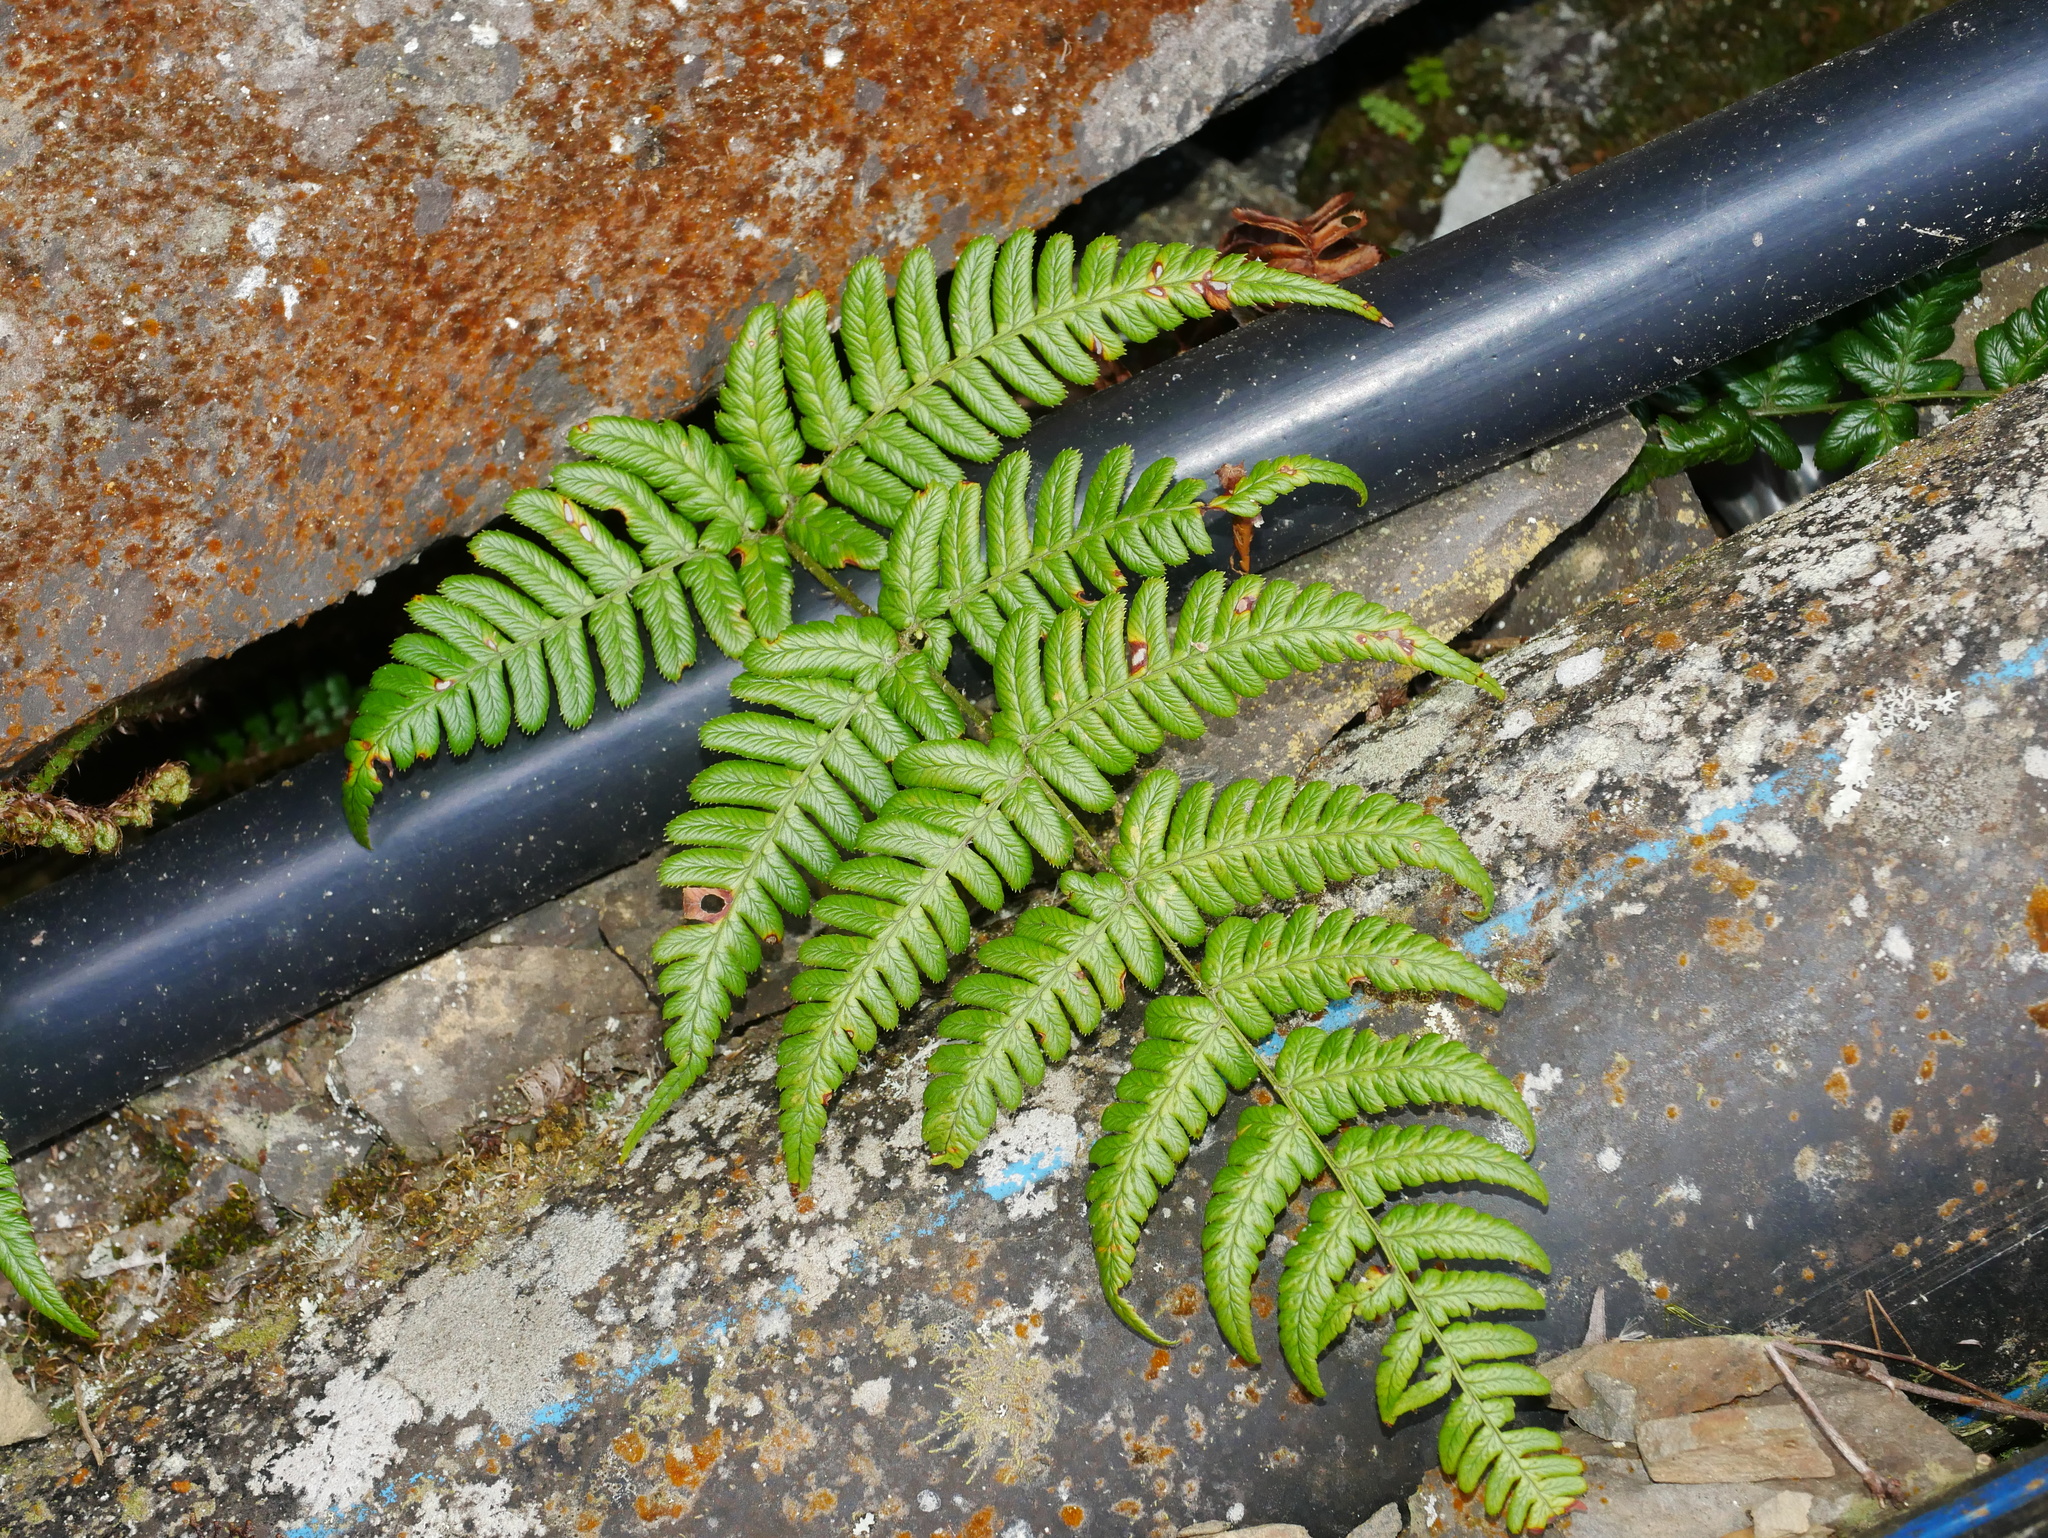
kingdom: Plantae
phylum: Tracheophyta
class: Polypodiopsida
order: Polypodiales
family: Dryopteridaceae
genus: Dryopteris
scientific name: Dryopteris lachoongensis
